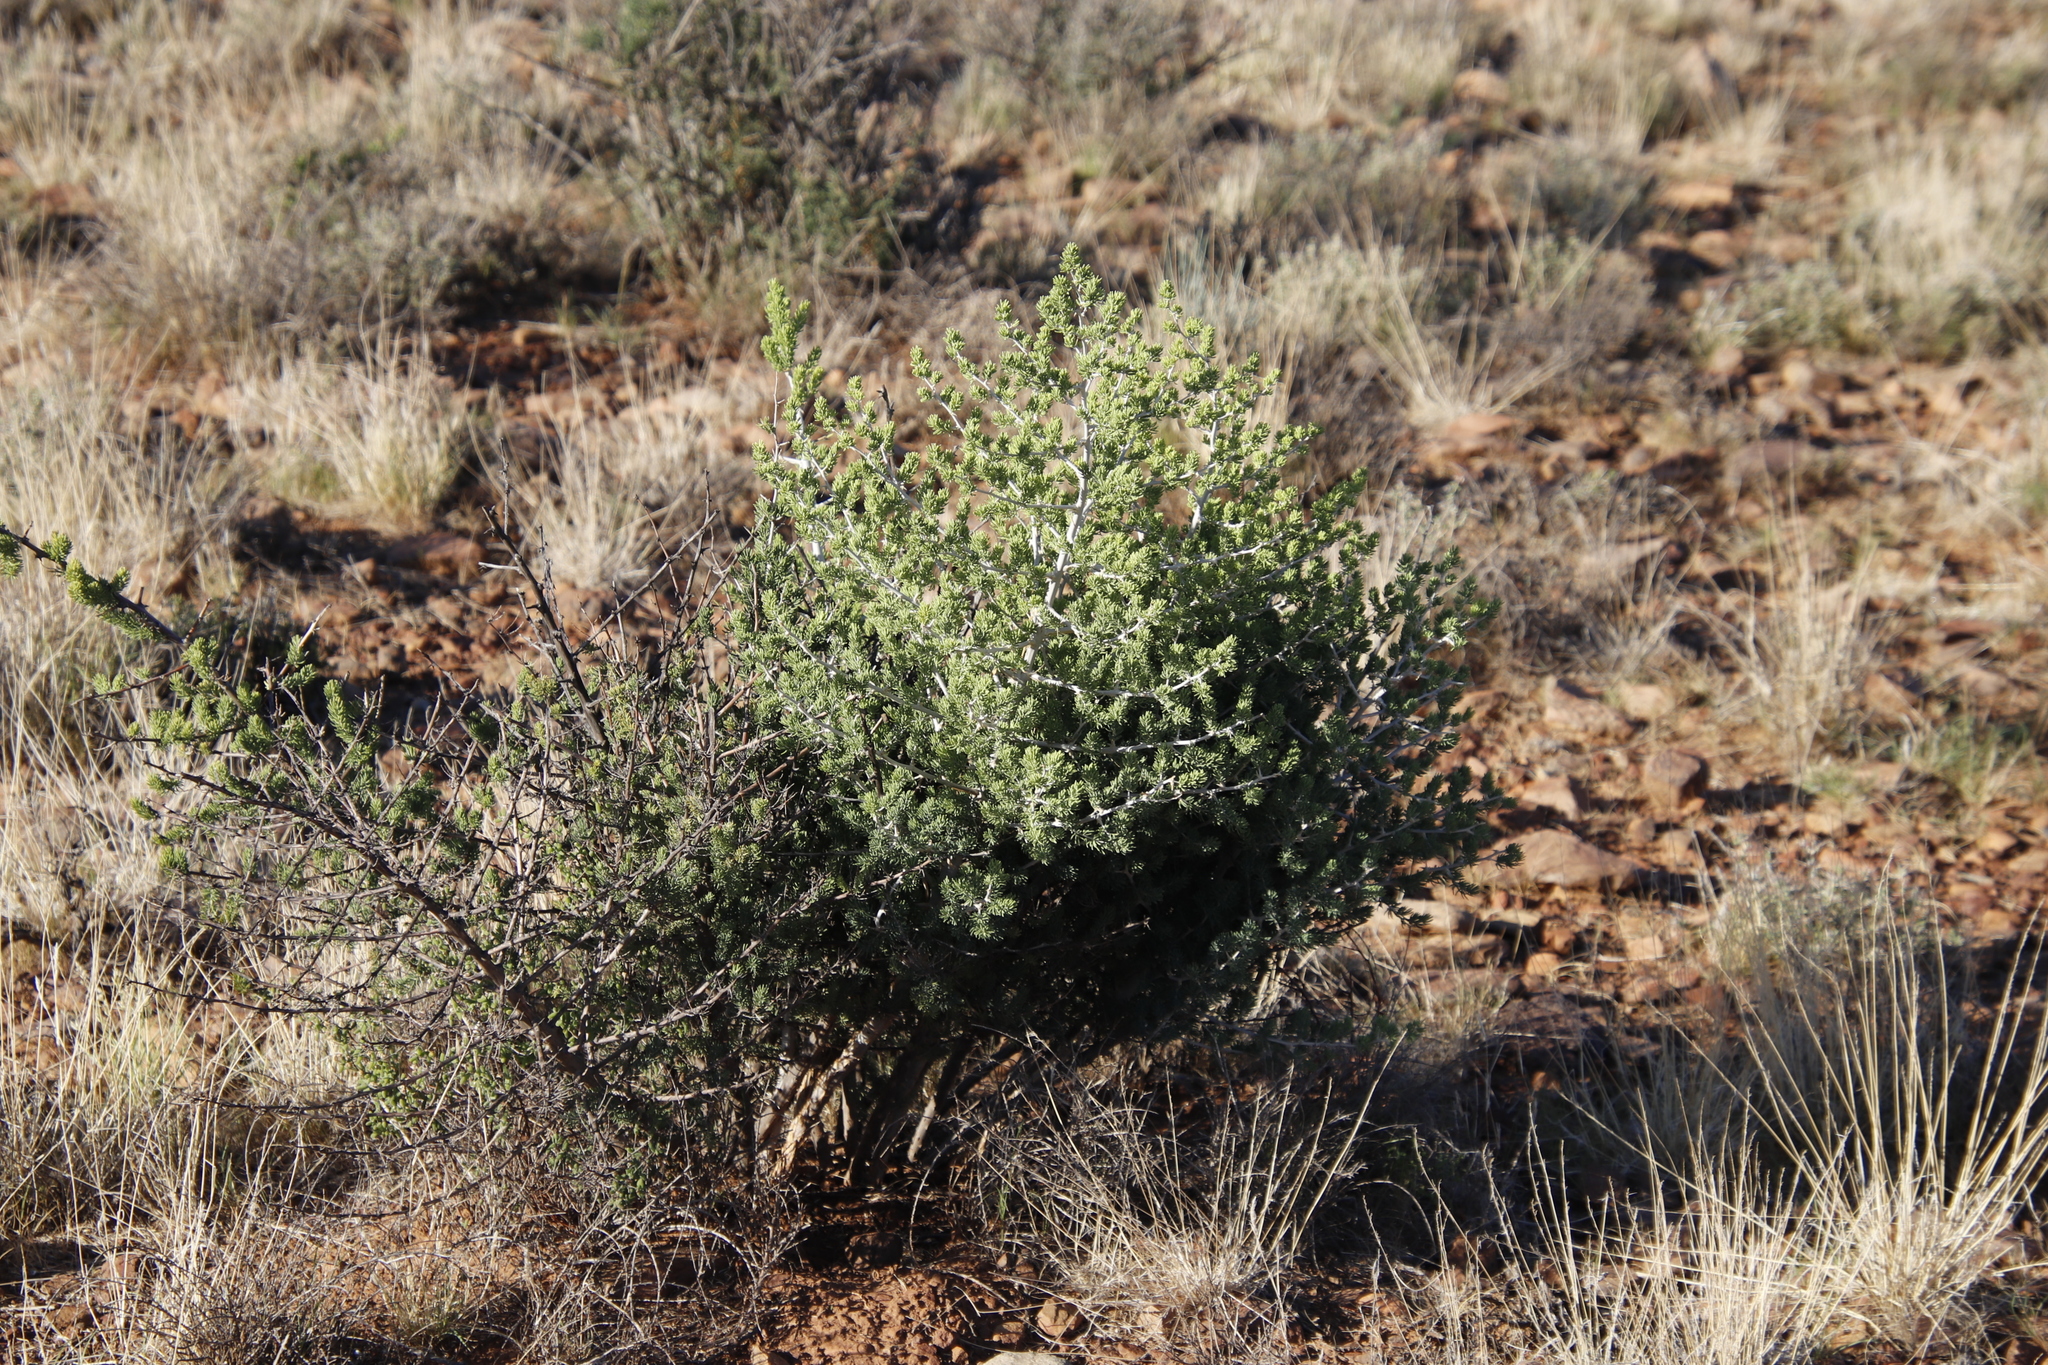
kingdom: Plantae
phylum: Tracheophyta
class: Liliopsida
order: Asparagales
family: Asparagaceae
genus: Asparagus
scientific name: Asparagus mucronatus
